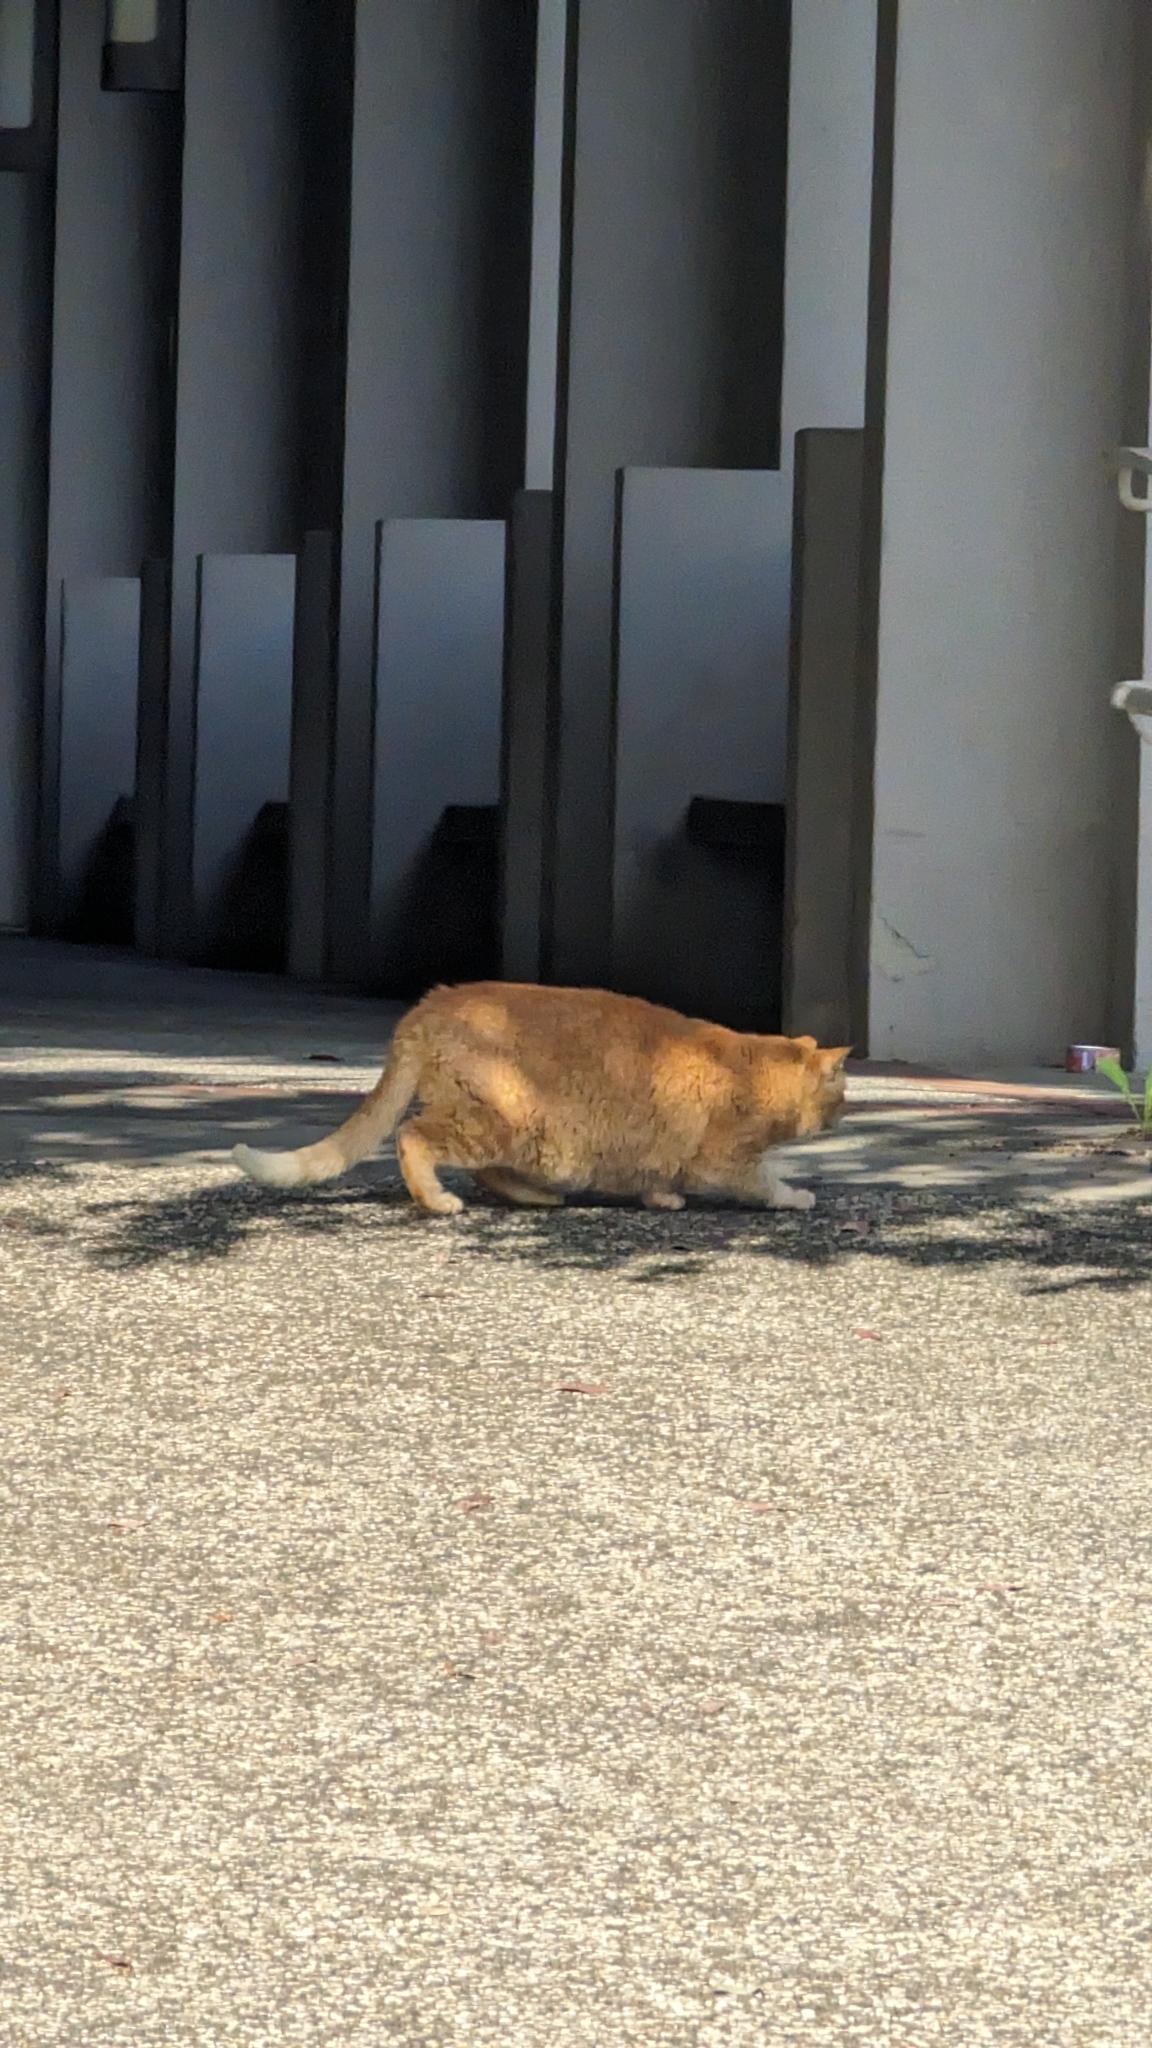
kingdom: Animalia
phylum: Chordata
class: Mammalia
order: Carnivora
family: Felidae
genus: Felis
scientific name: Felis catus
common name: Domestic cat
